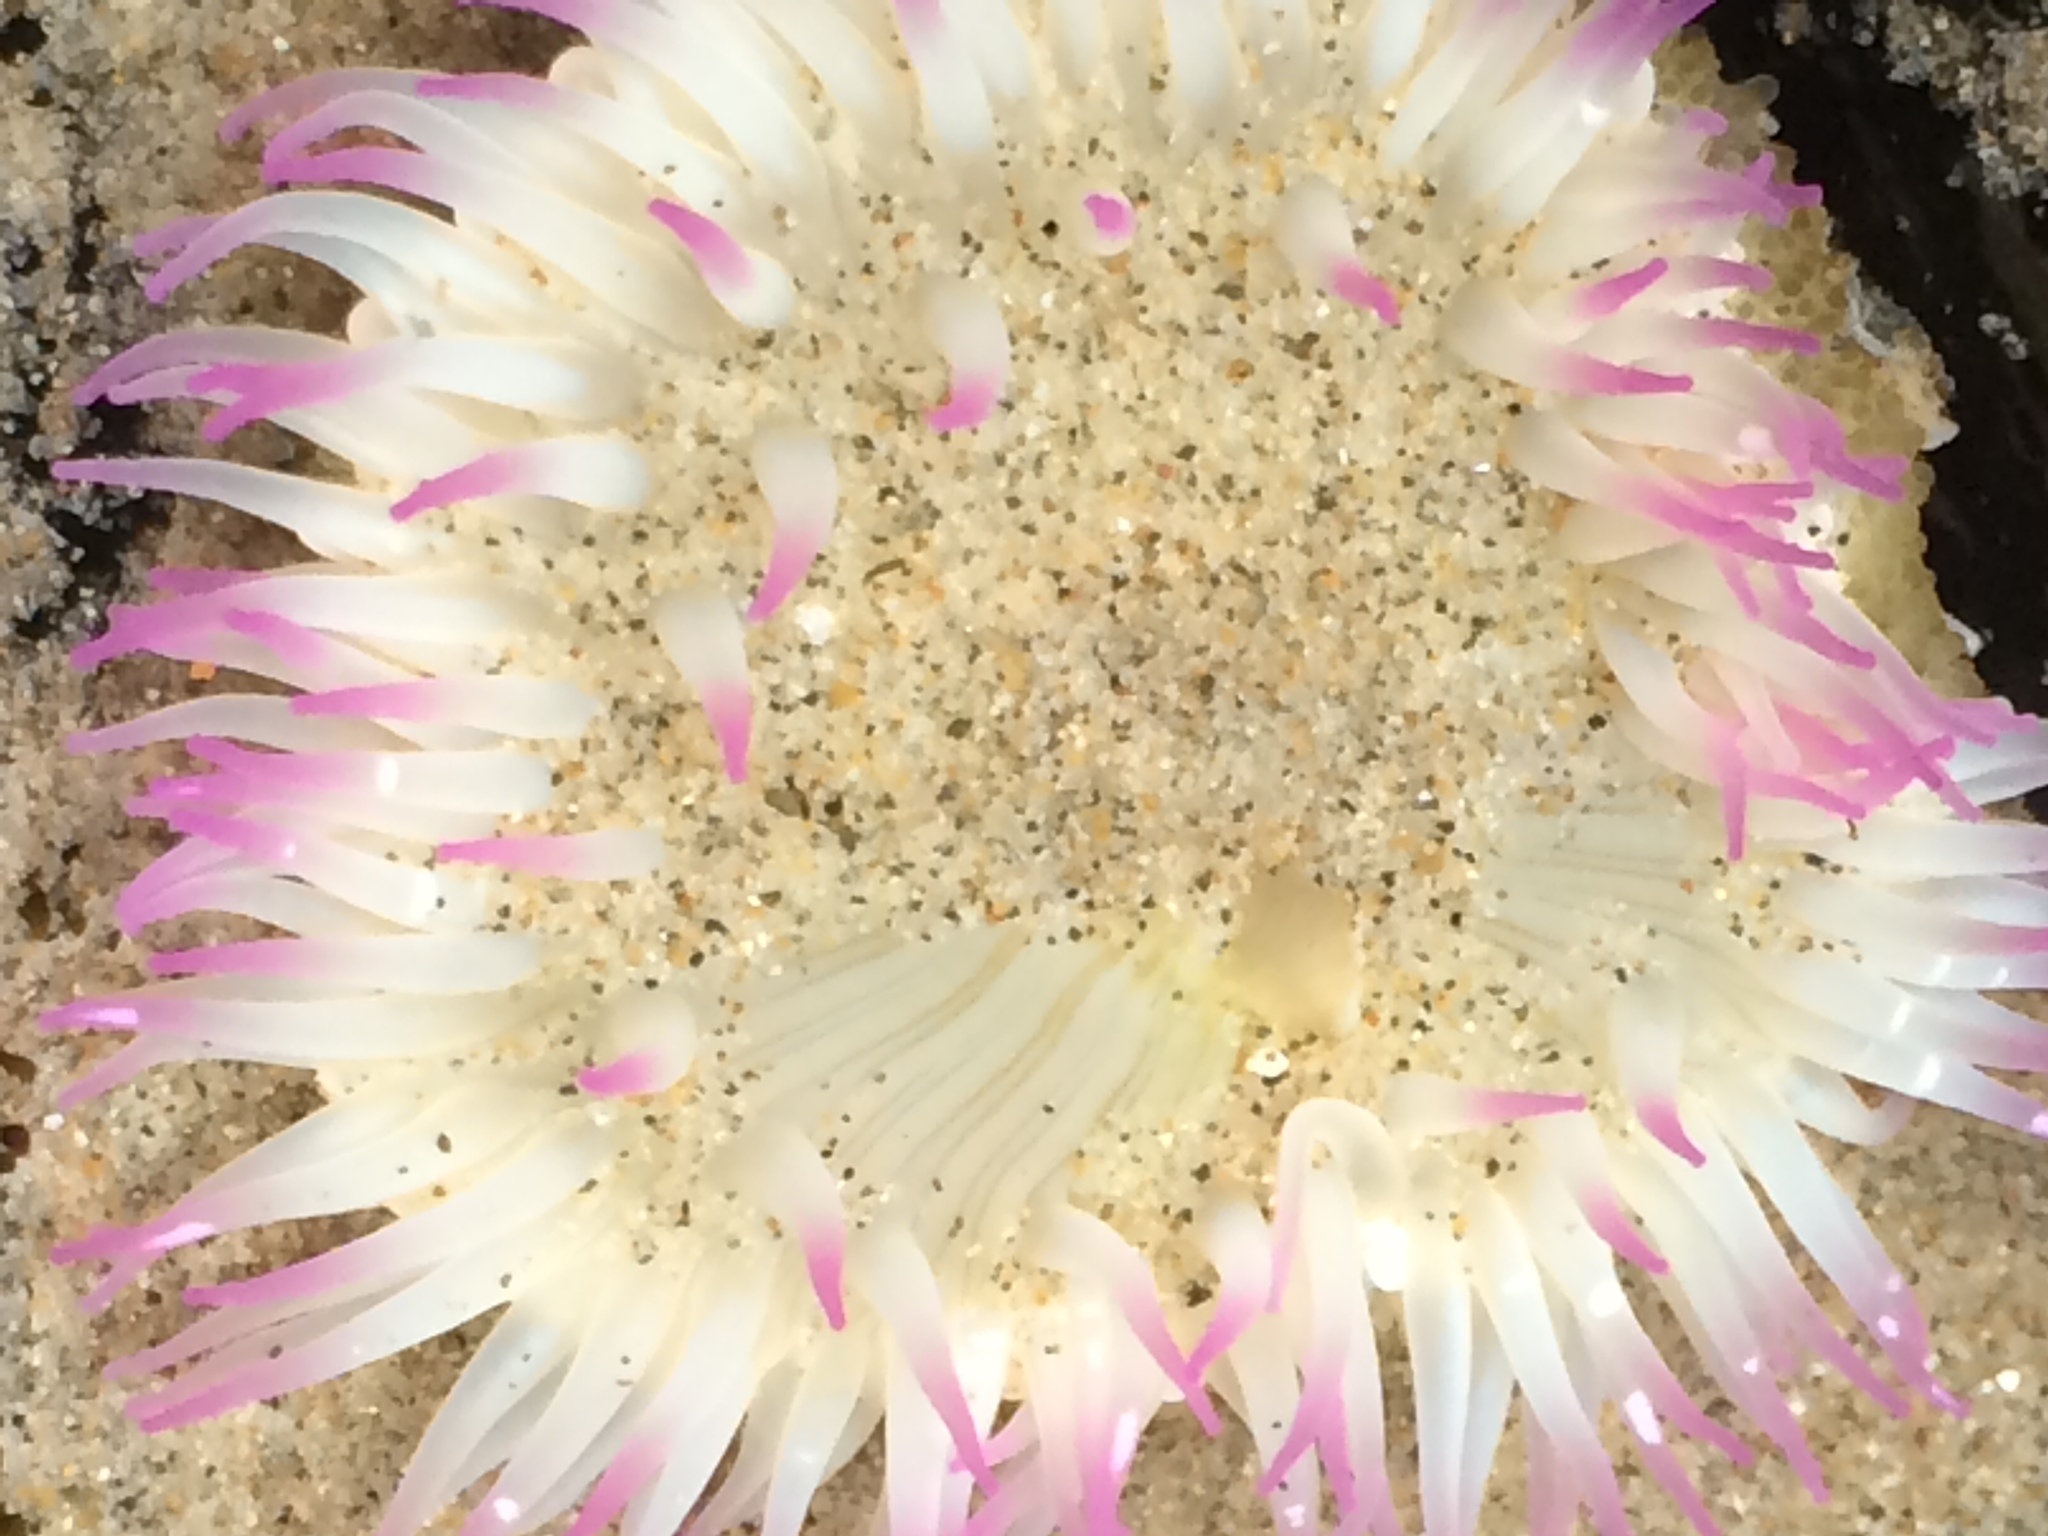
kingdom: Animalia
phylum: Cnidaria
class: Anthozoa
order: Actiniaria
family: Actiniidae
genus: Anthopleura
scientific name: Anthopleura elegantissima
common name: Clonal anemone
